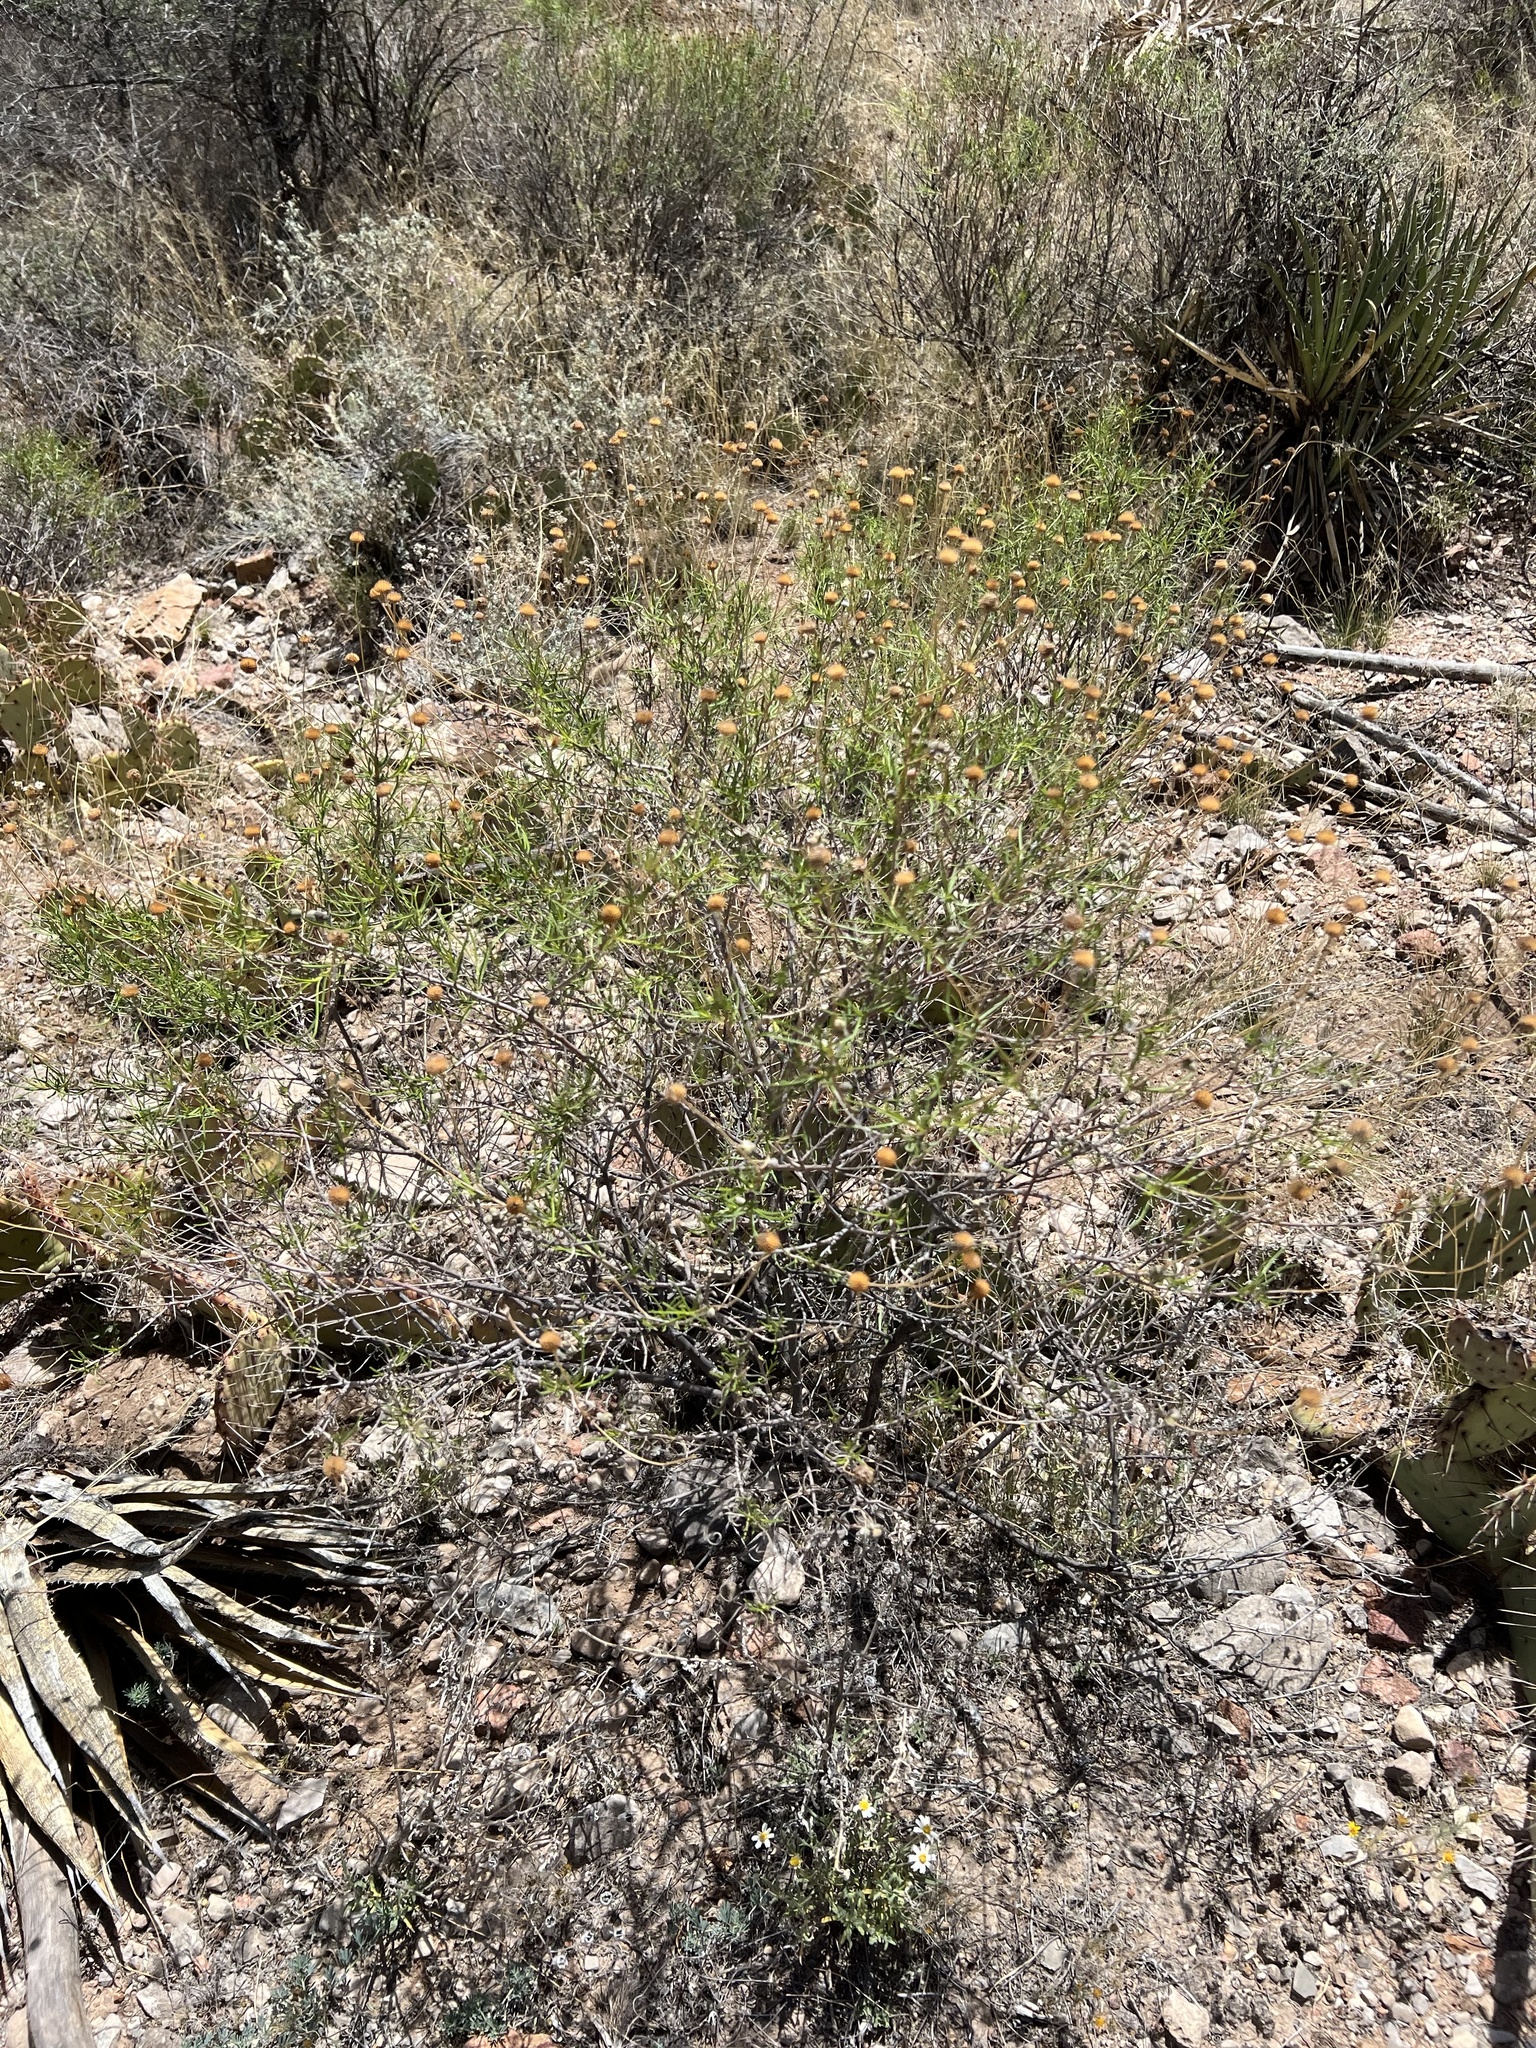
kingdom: Plantae
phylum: Tracheophyta
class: Magnoliopsida
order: Asterales
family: Asteraceae
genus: Sidneya
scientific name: Sidneya tenuifolia
